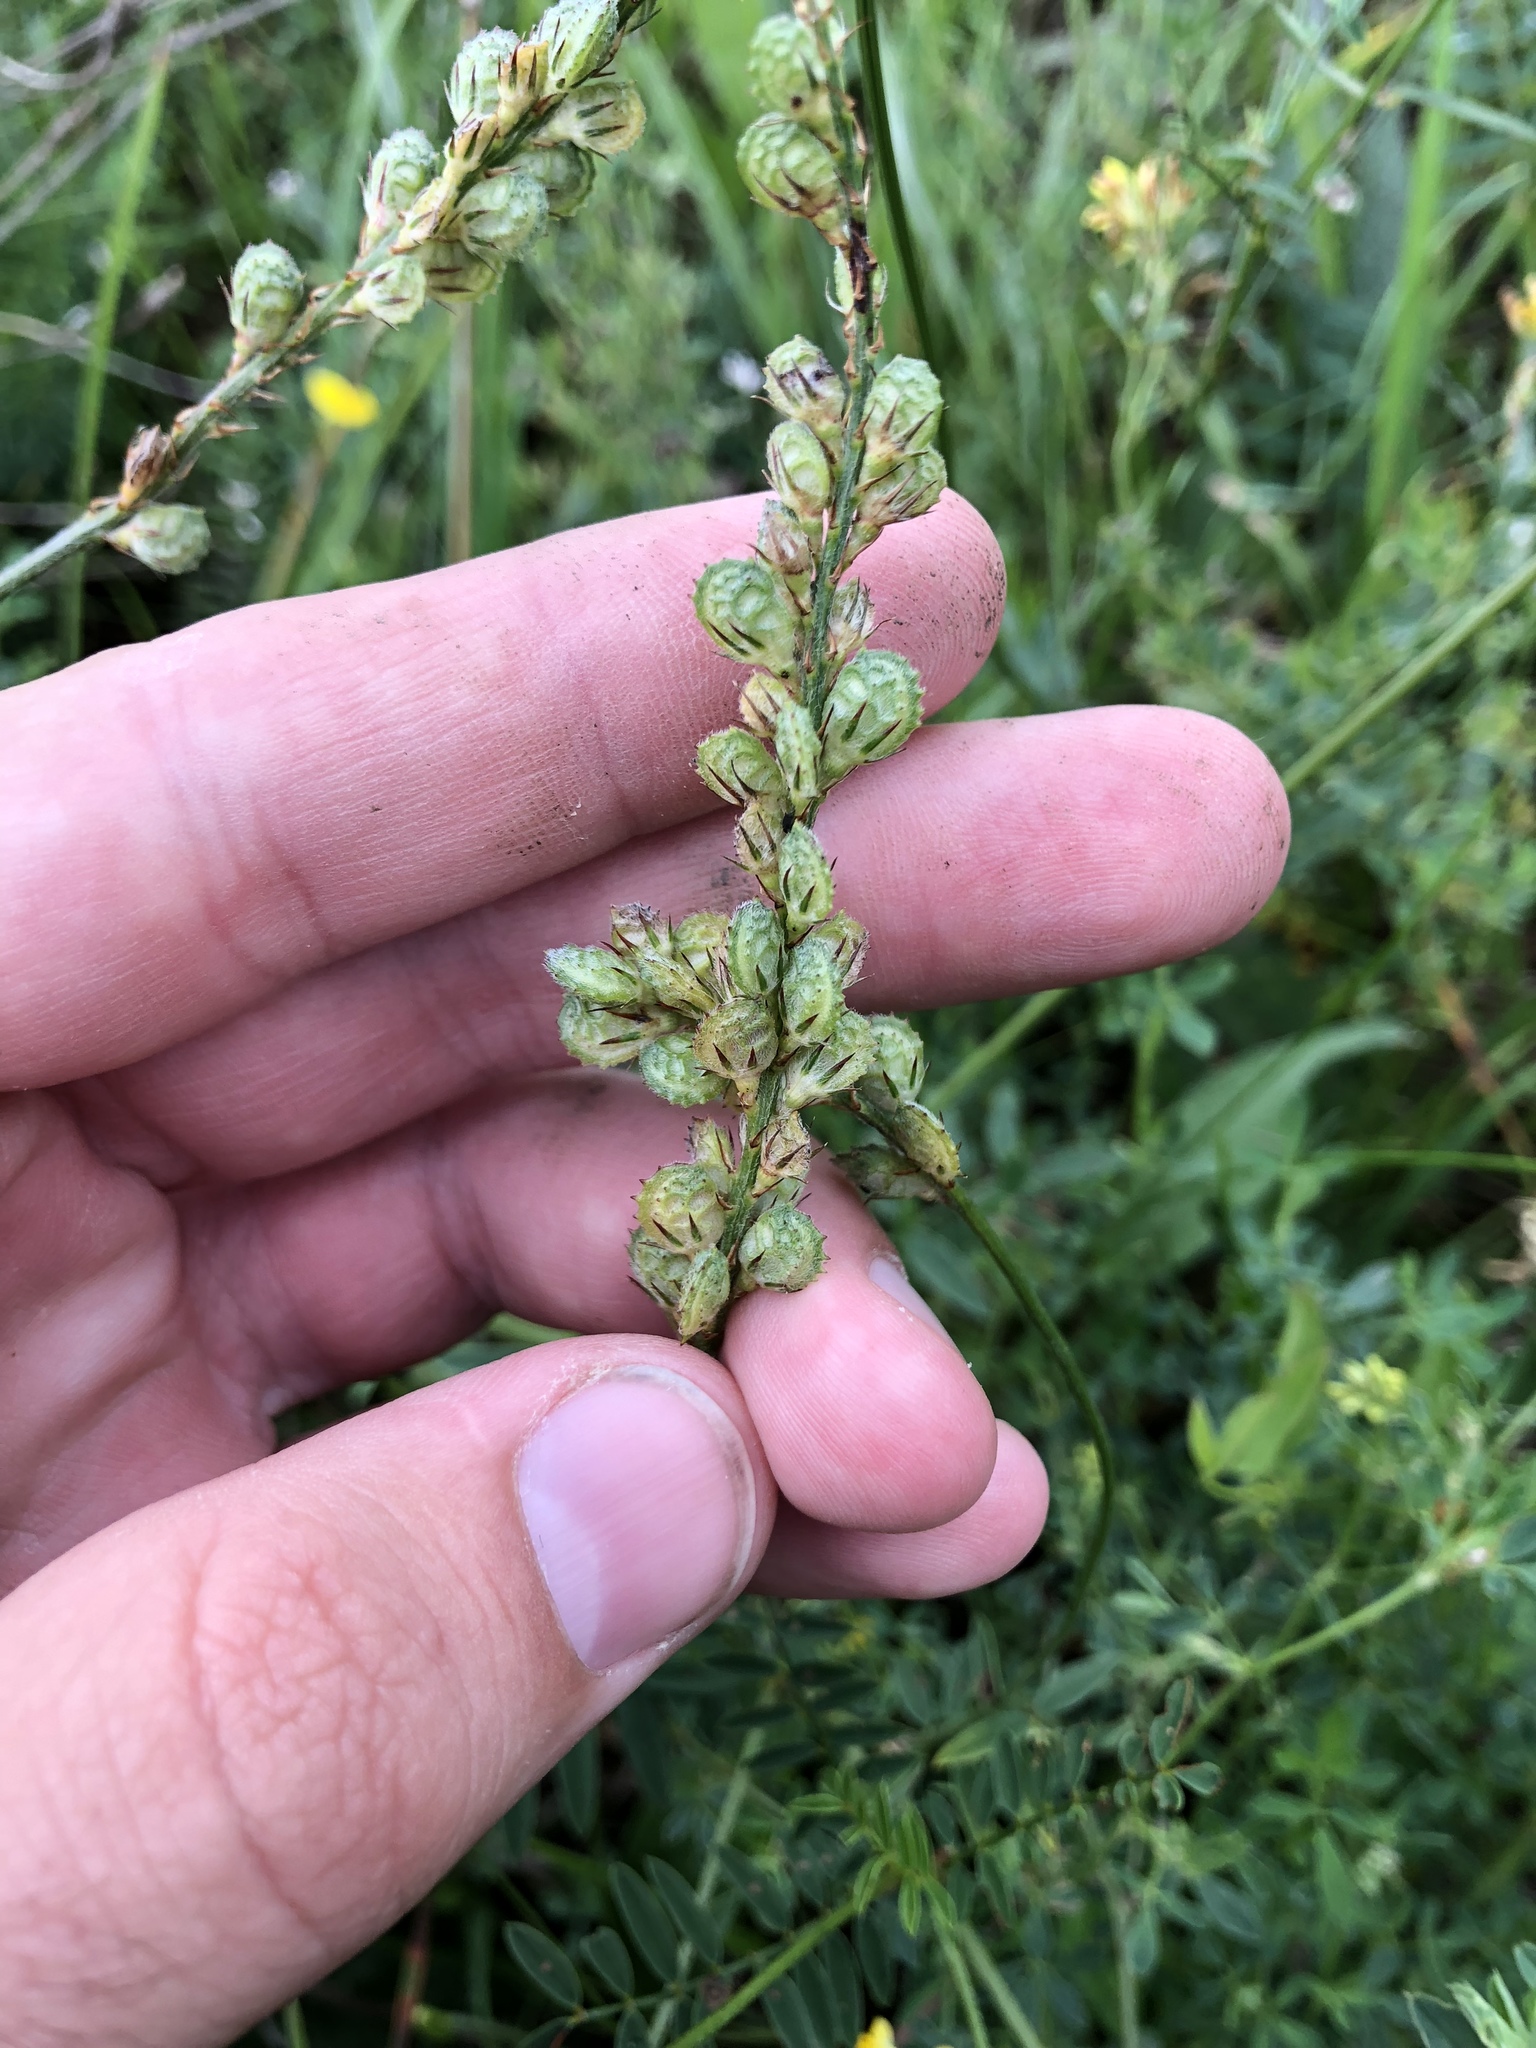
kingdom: Plantae
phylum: Tracheophyta
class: Magnoliopsida
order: Fabales
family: Fabaceae
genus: Onobrychis
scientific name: Onobrychis viciifolia
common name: Sainfoin
